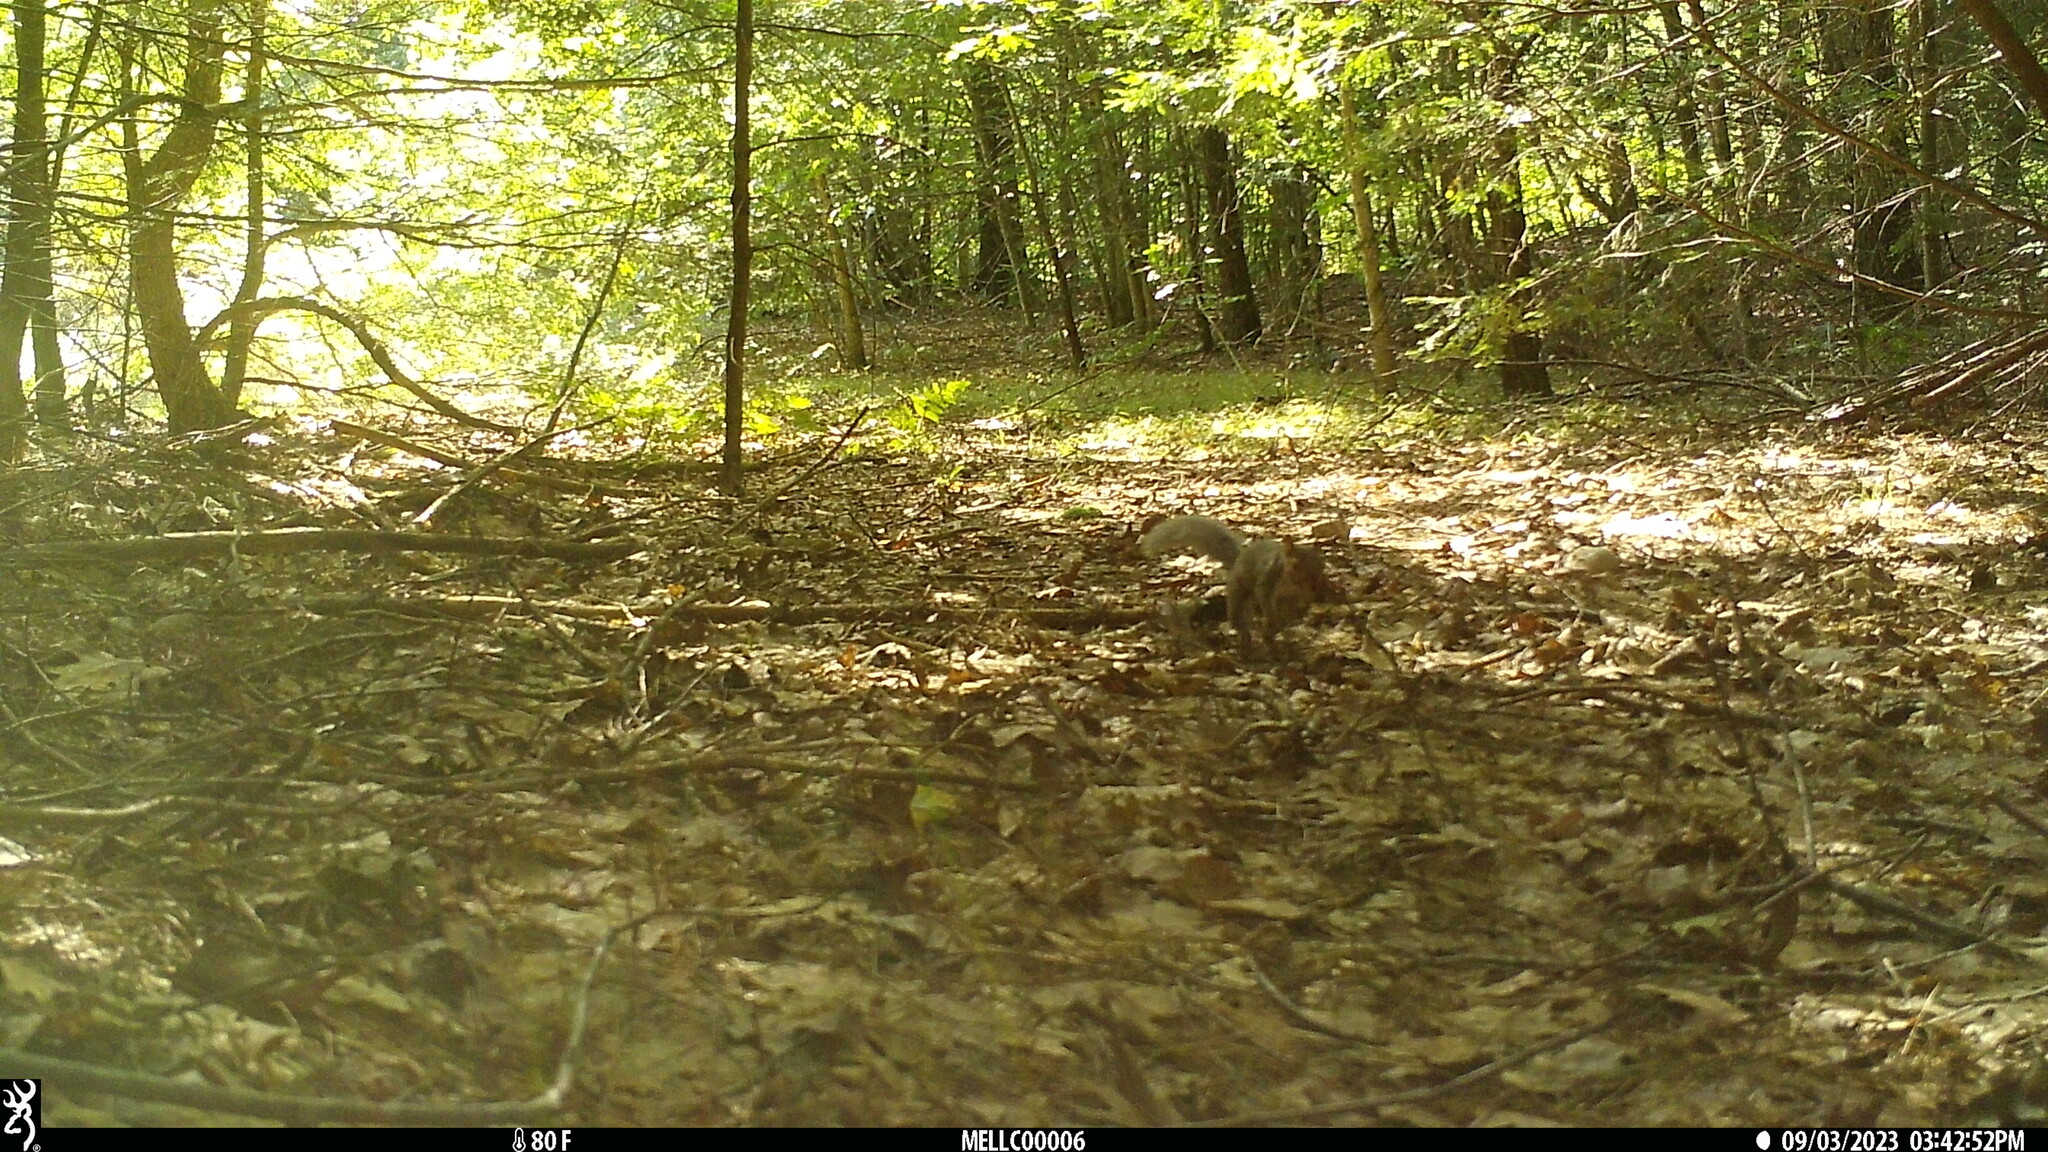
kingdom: Animalia
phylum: Chordata
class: Mammalia
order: Rodentia
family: Sciuridae
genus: Sciurus
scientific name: Sciurus carolinensis
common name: Eastern gray squirrel
